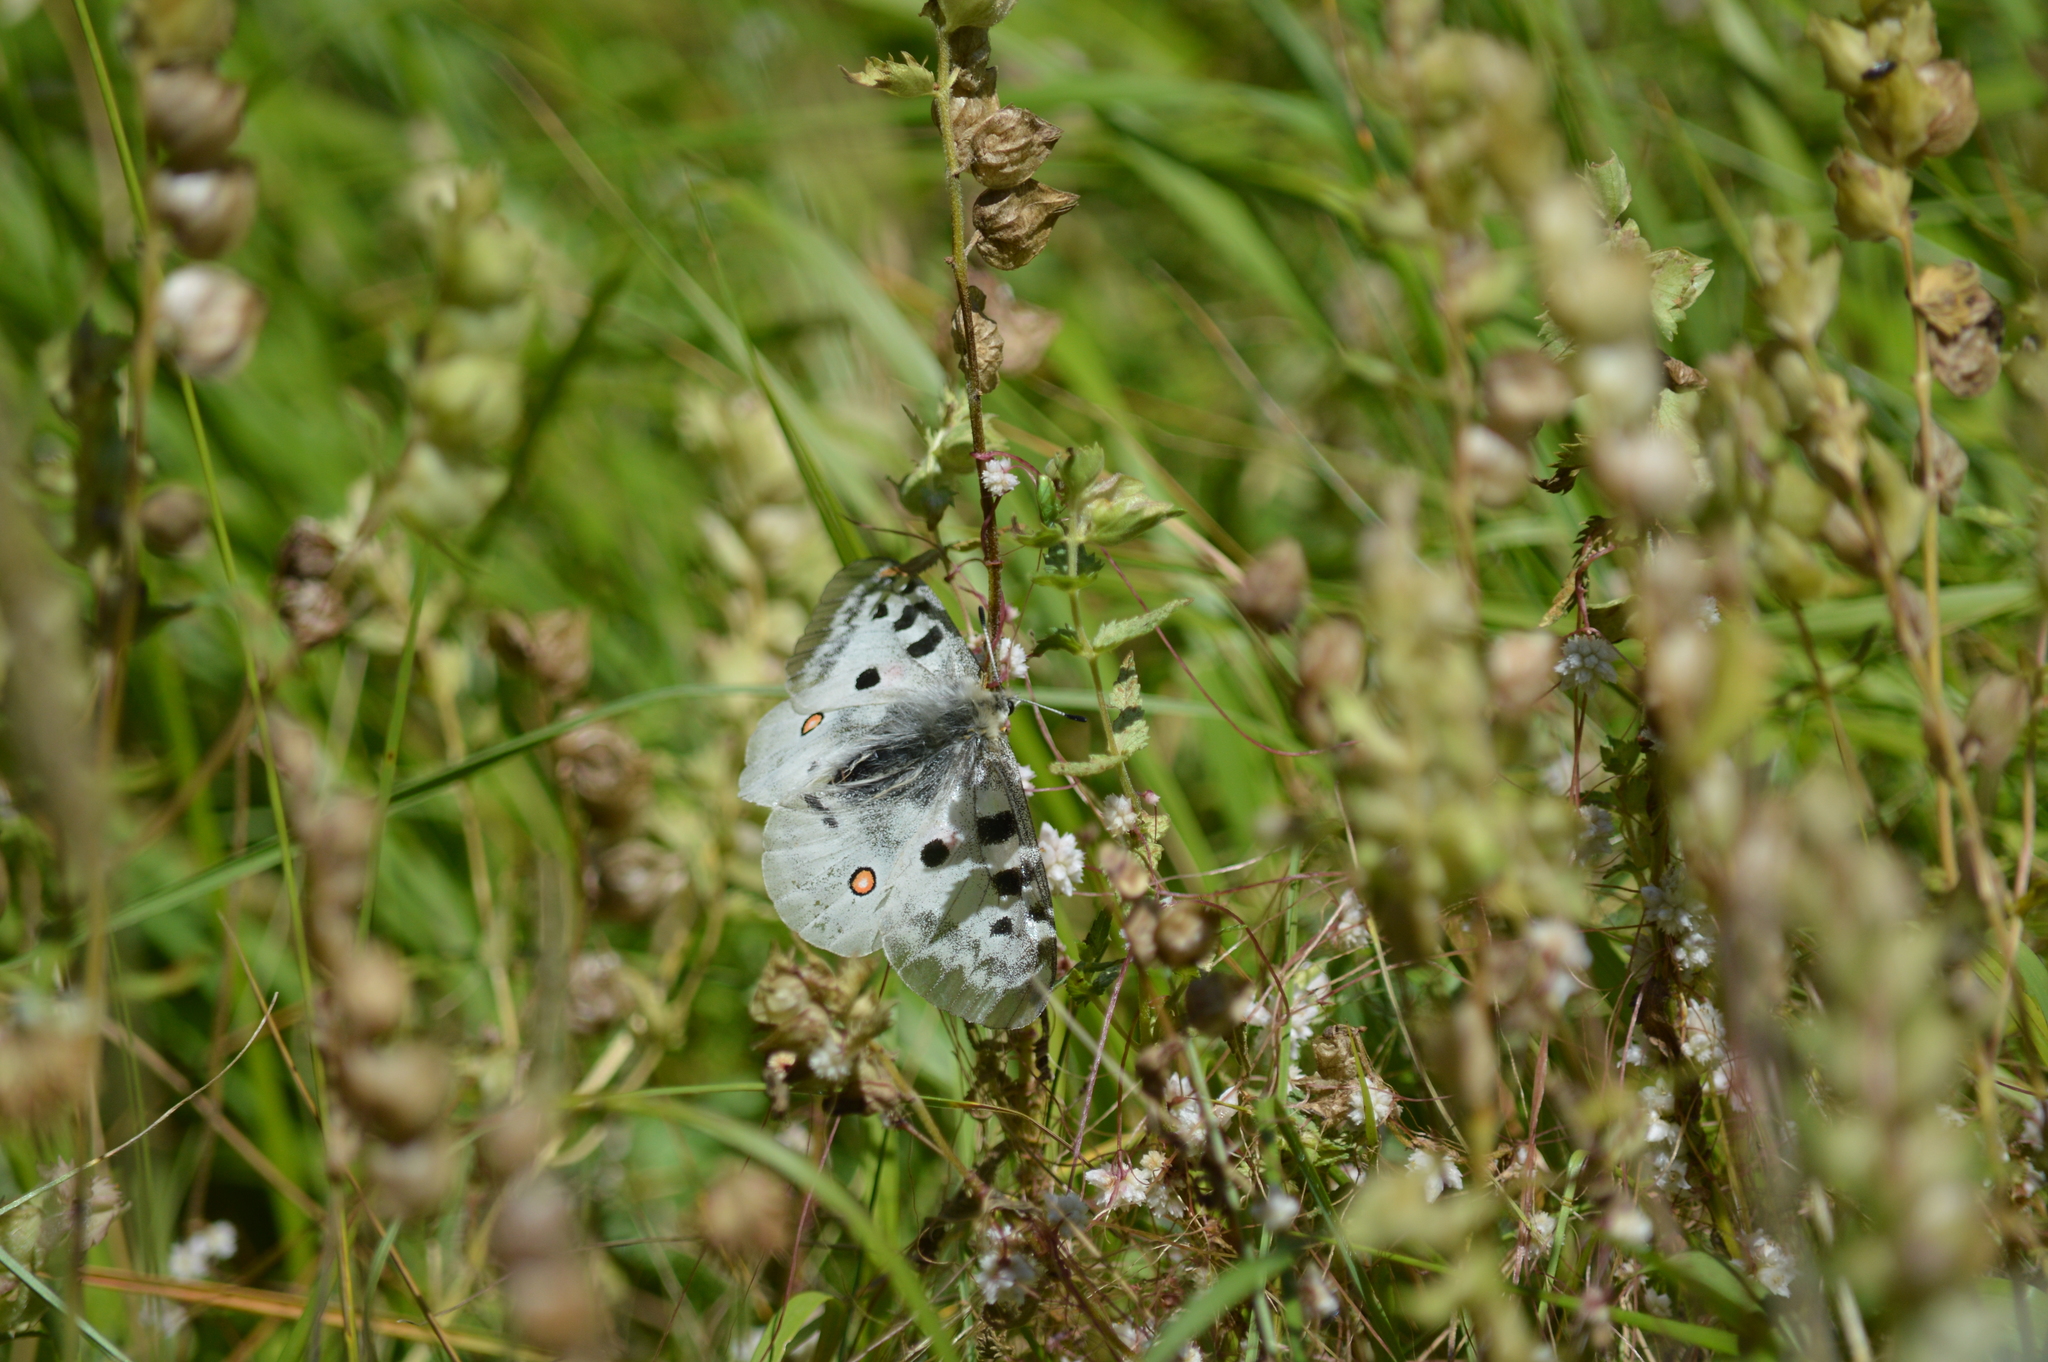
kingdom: Animalia
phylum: Arthropoda
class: Insecta
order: Lepidoptera
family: Papilionidae
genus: Parnassius
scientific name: Parnassius apollo
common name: Apollo
